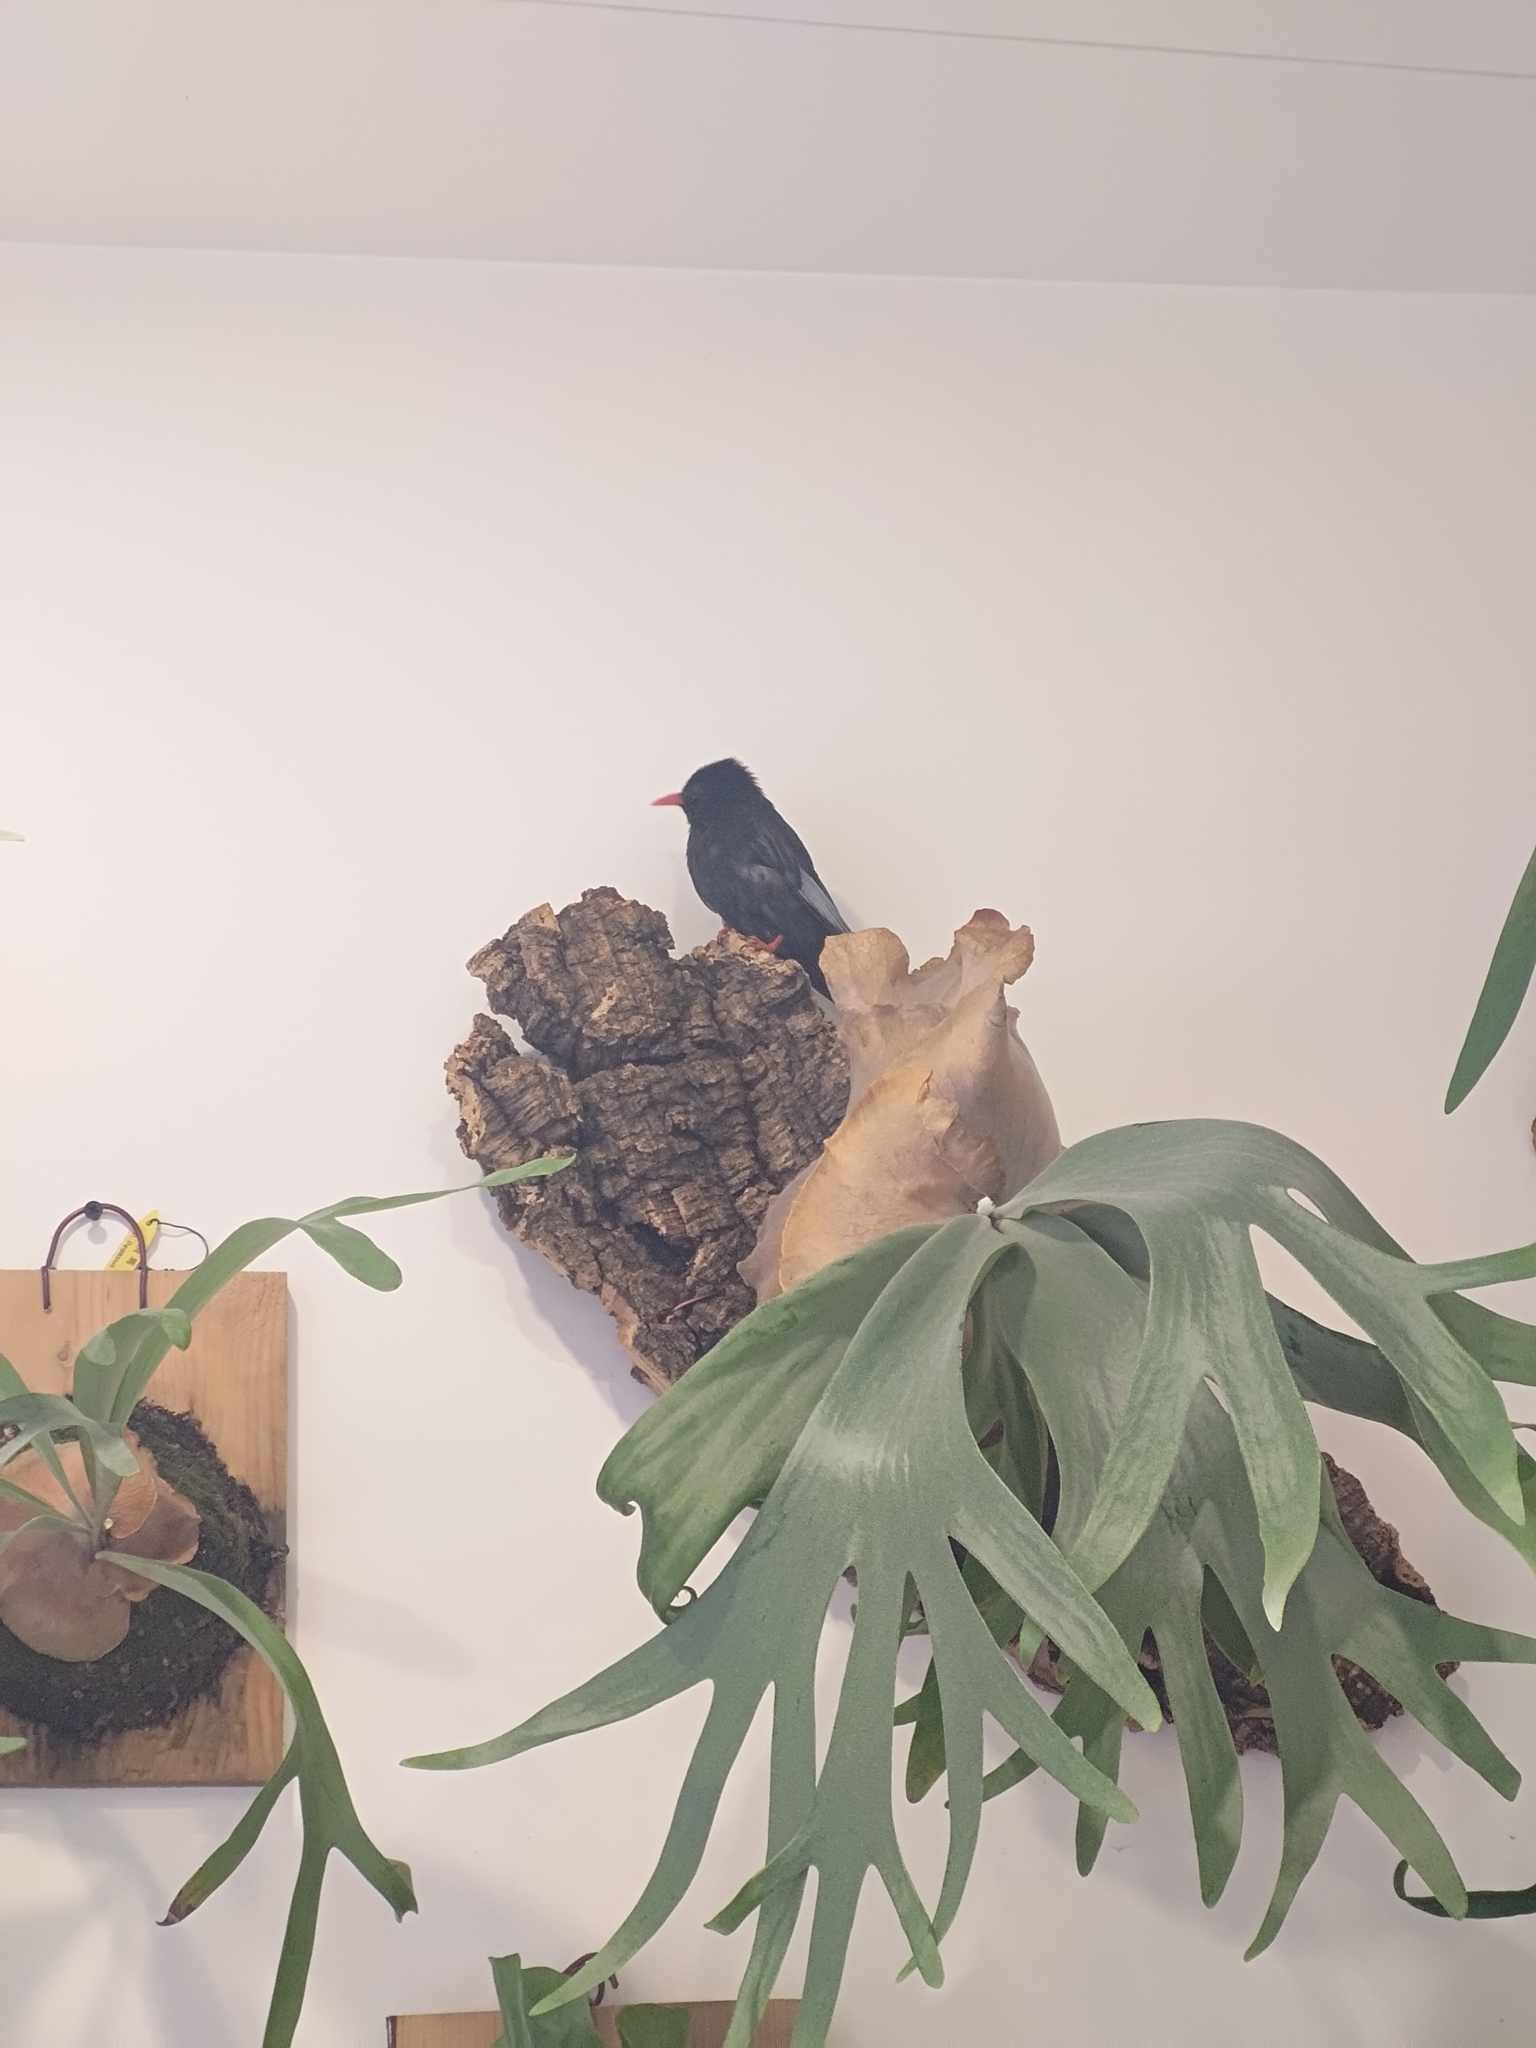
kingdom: Animalia
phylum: Chordata
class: Aves
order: Passeriformes
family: Pycnonotidae
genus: Hypsipetes
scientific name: Hypsipetes leucocephalus
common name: Black bulbul
